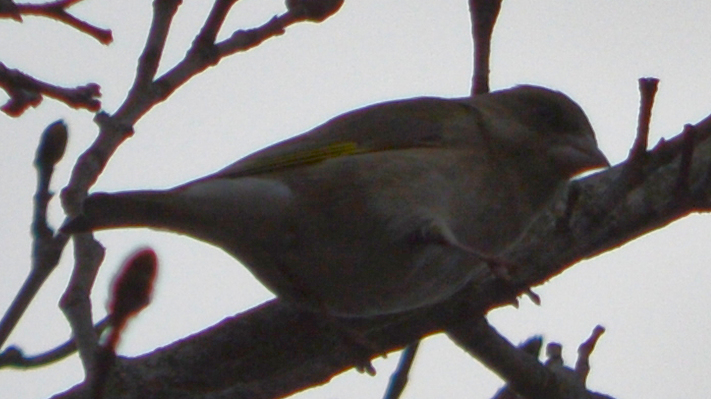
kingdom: Plantae
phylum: Tracheophyta
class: Liliopsida
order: Poales
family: Poaceae
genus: Chloris
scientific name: Chloris chloris
